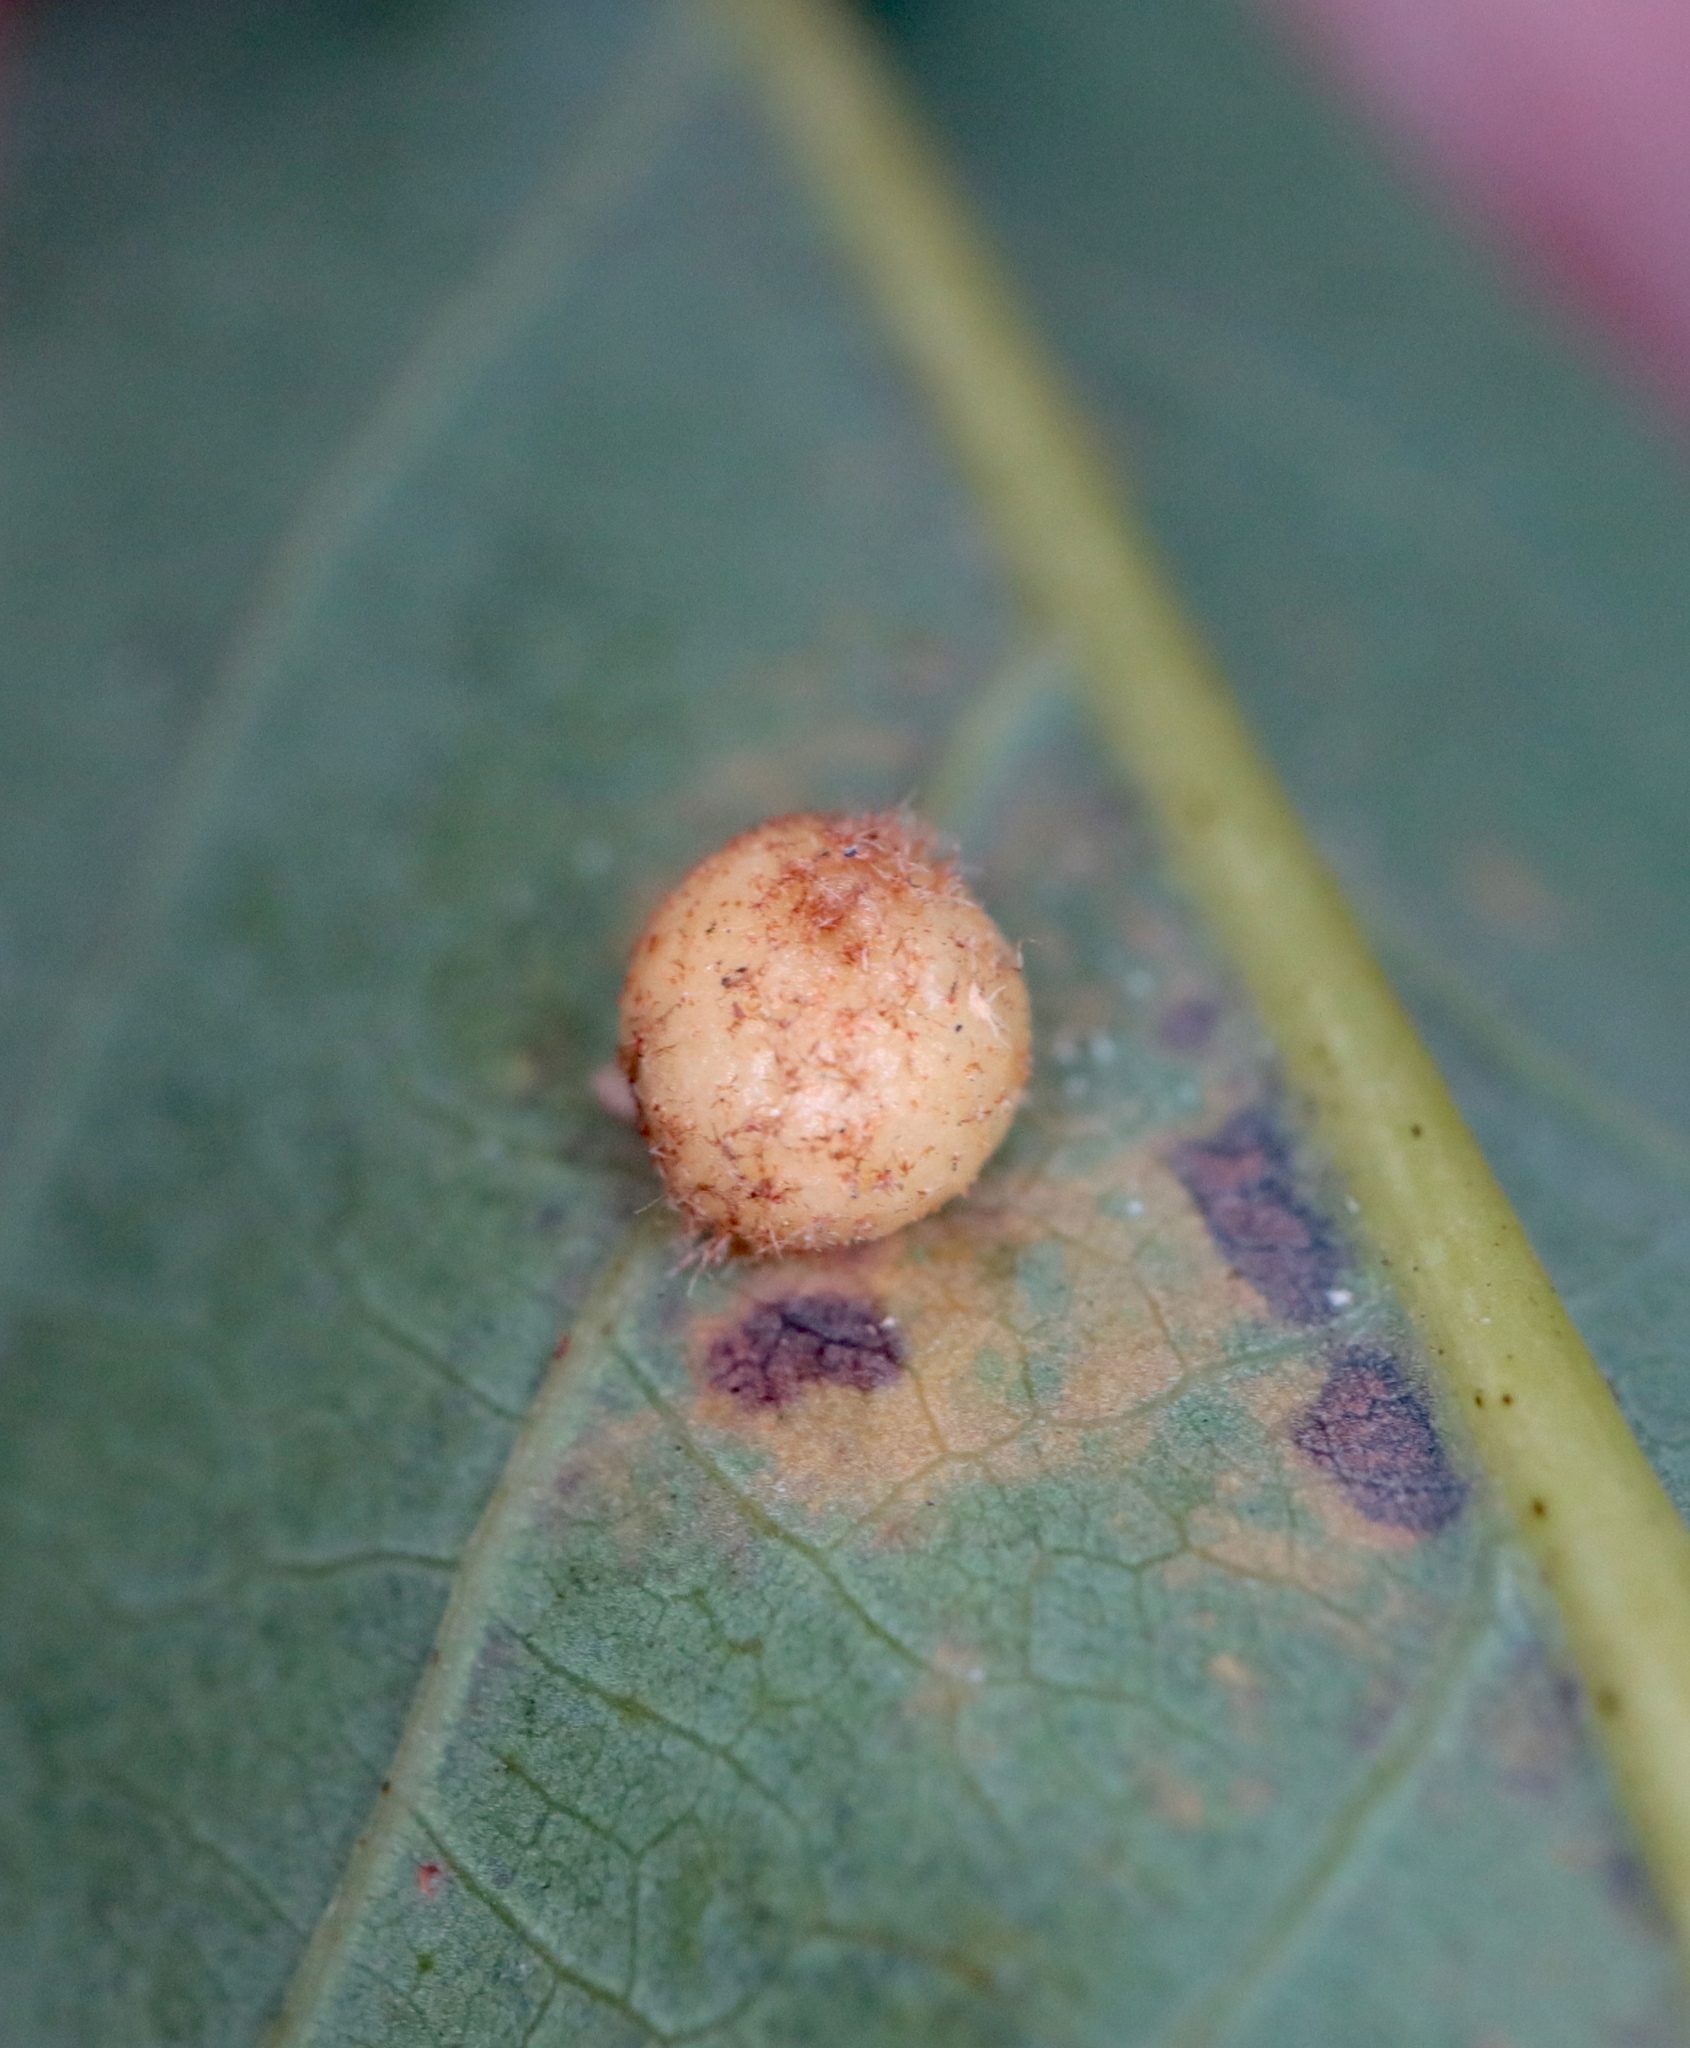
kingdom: Animalia
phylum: Arthropoda
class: Insecta
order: Hymenoptera
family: Cynipidae
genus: Philonix
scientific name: Philonix fulvicollis
